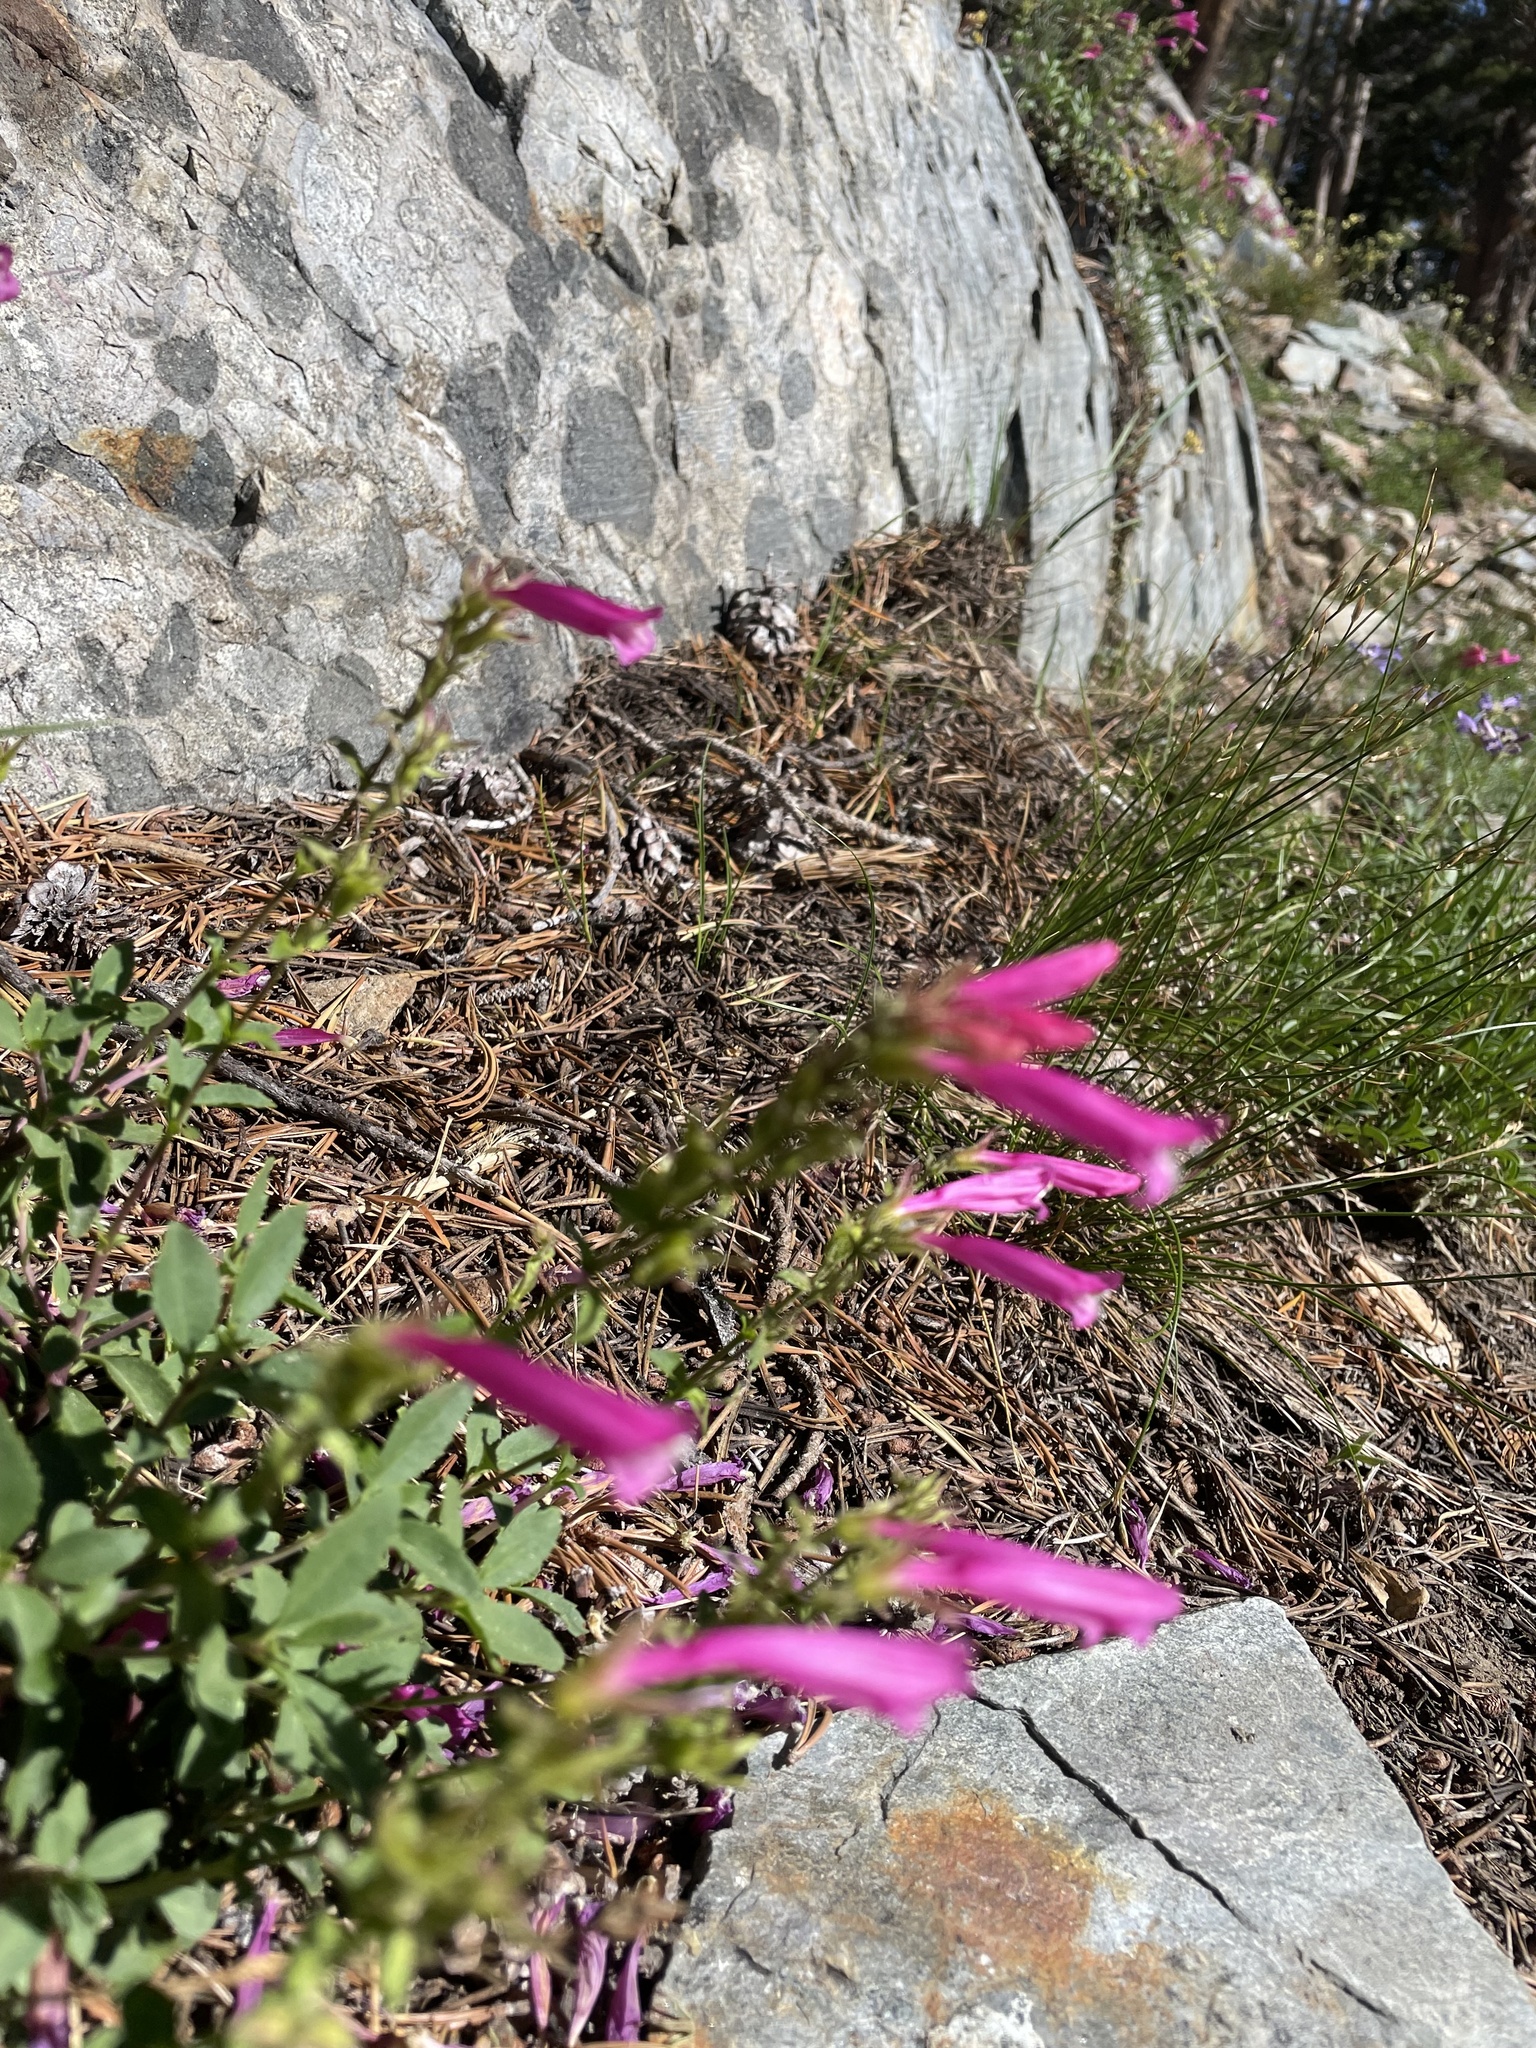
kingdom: Plantae
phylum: Tracheophyta
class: Magnoliopsida
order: Lamiales
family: Plantaginaceae
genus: Penstemon
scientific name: Penstemon newberryi
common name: Mountain-pride
